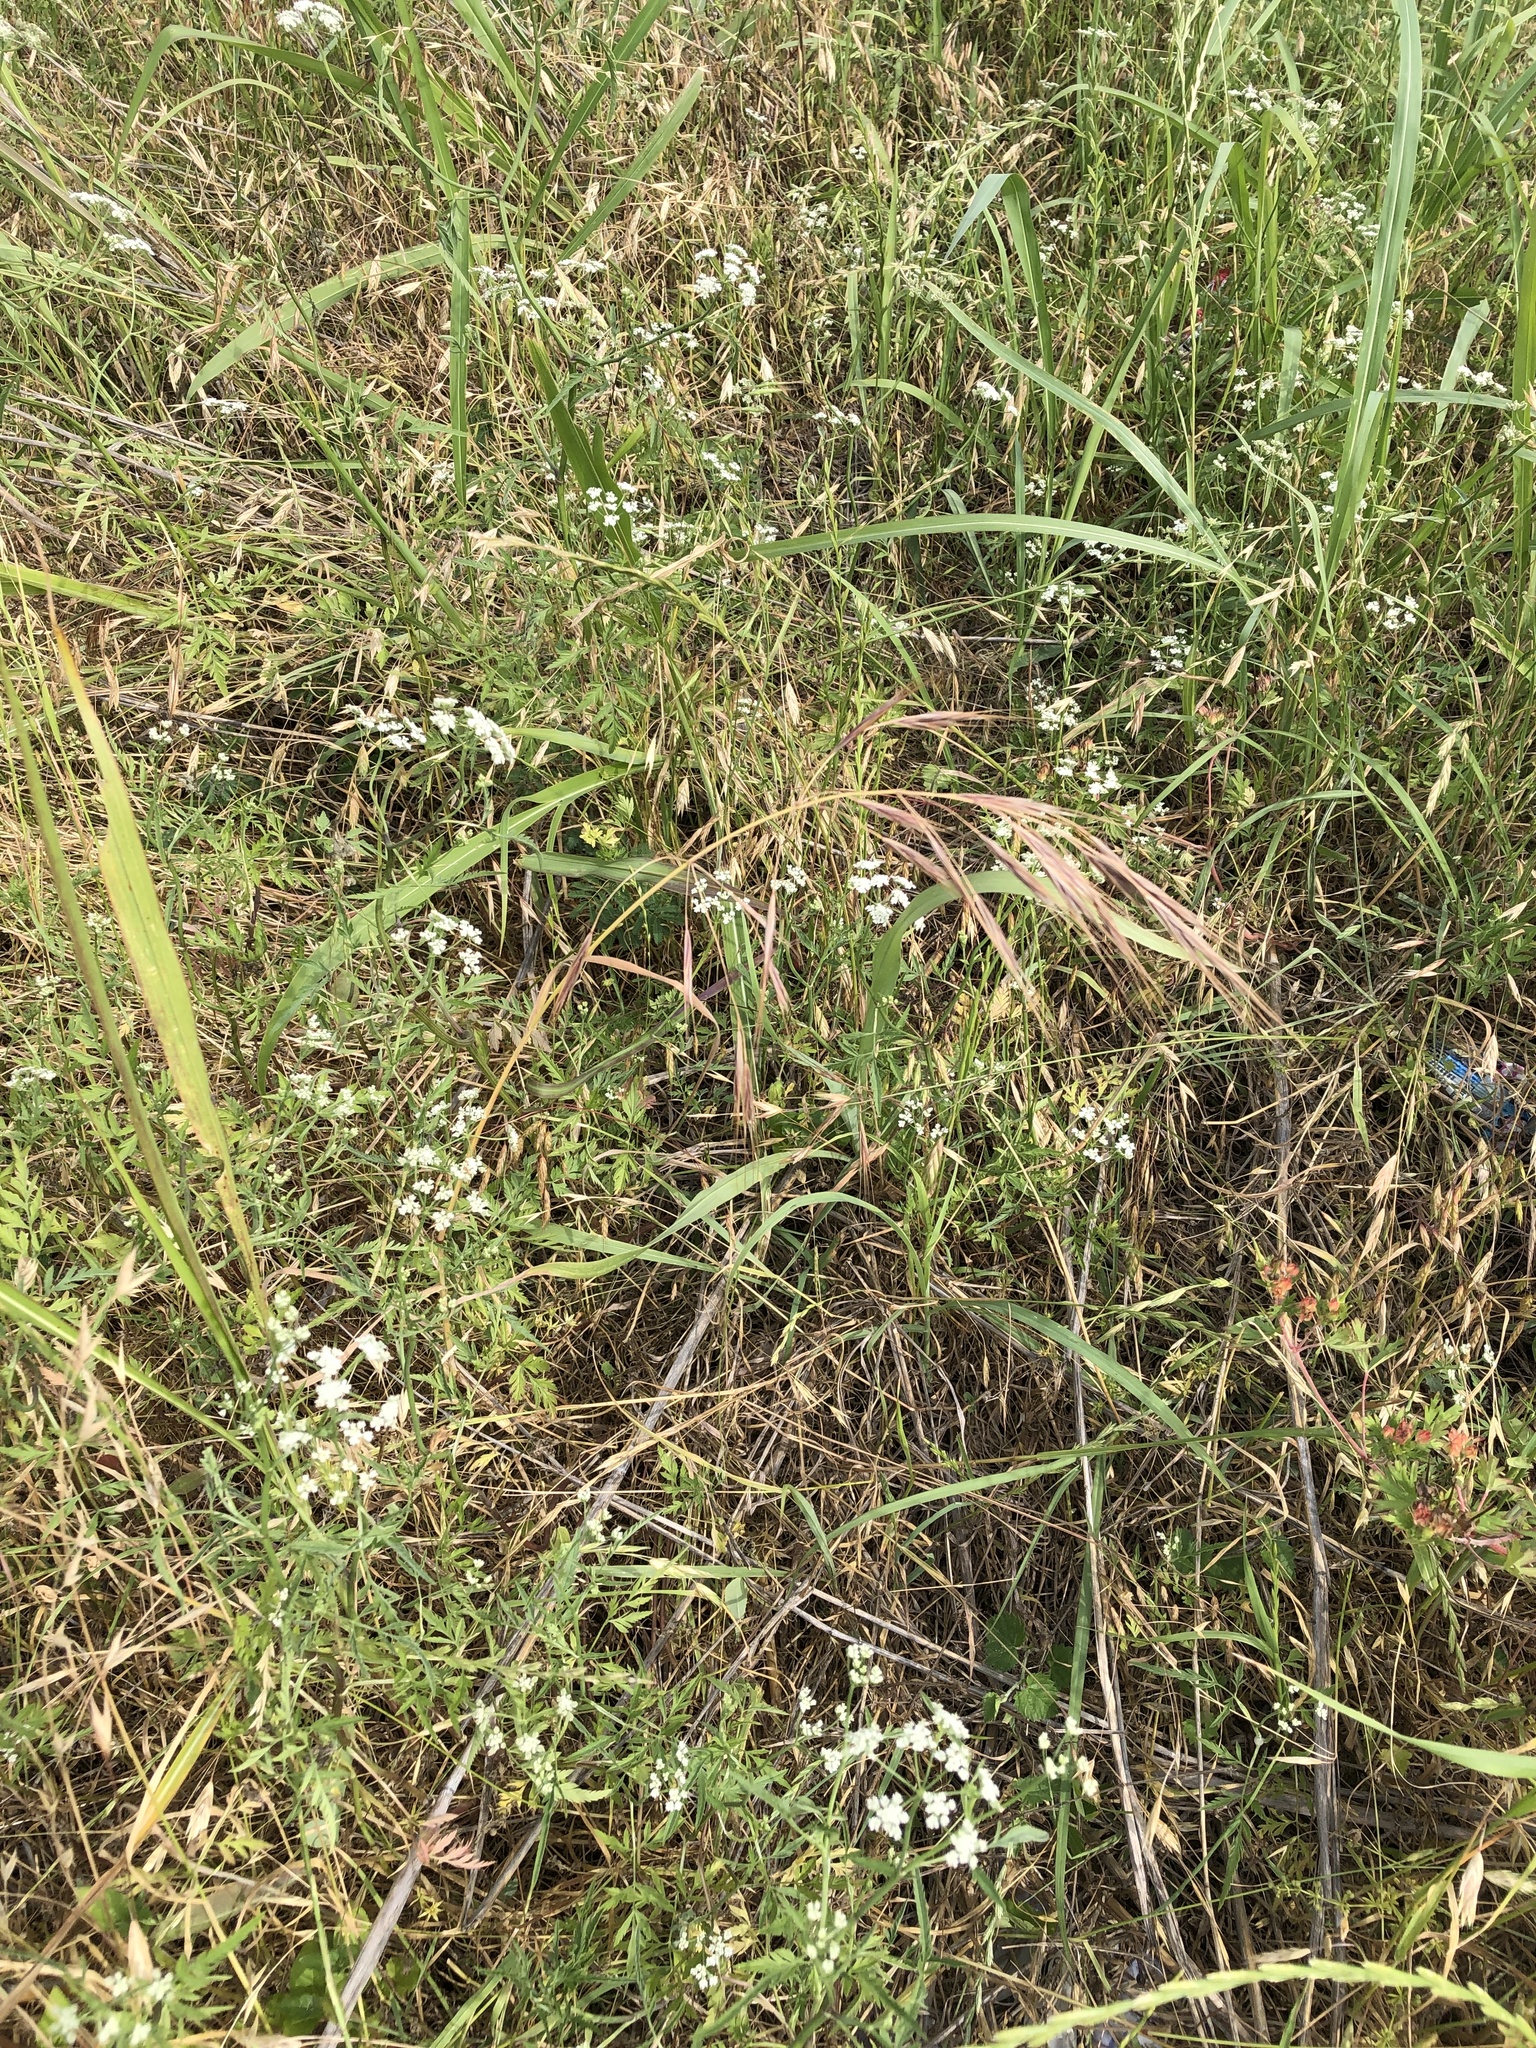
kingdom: Plantae
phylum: Tracheophyta
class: Liliopsida
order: Poales
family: Poaceae
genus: Bromus
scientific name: Bromus diandrus
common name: Ripgut brome
